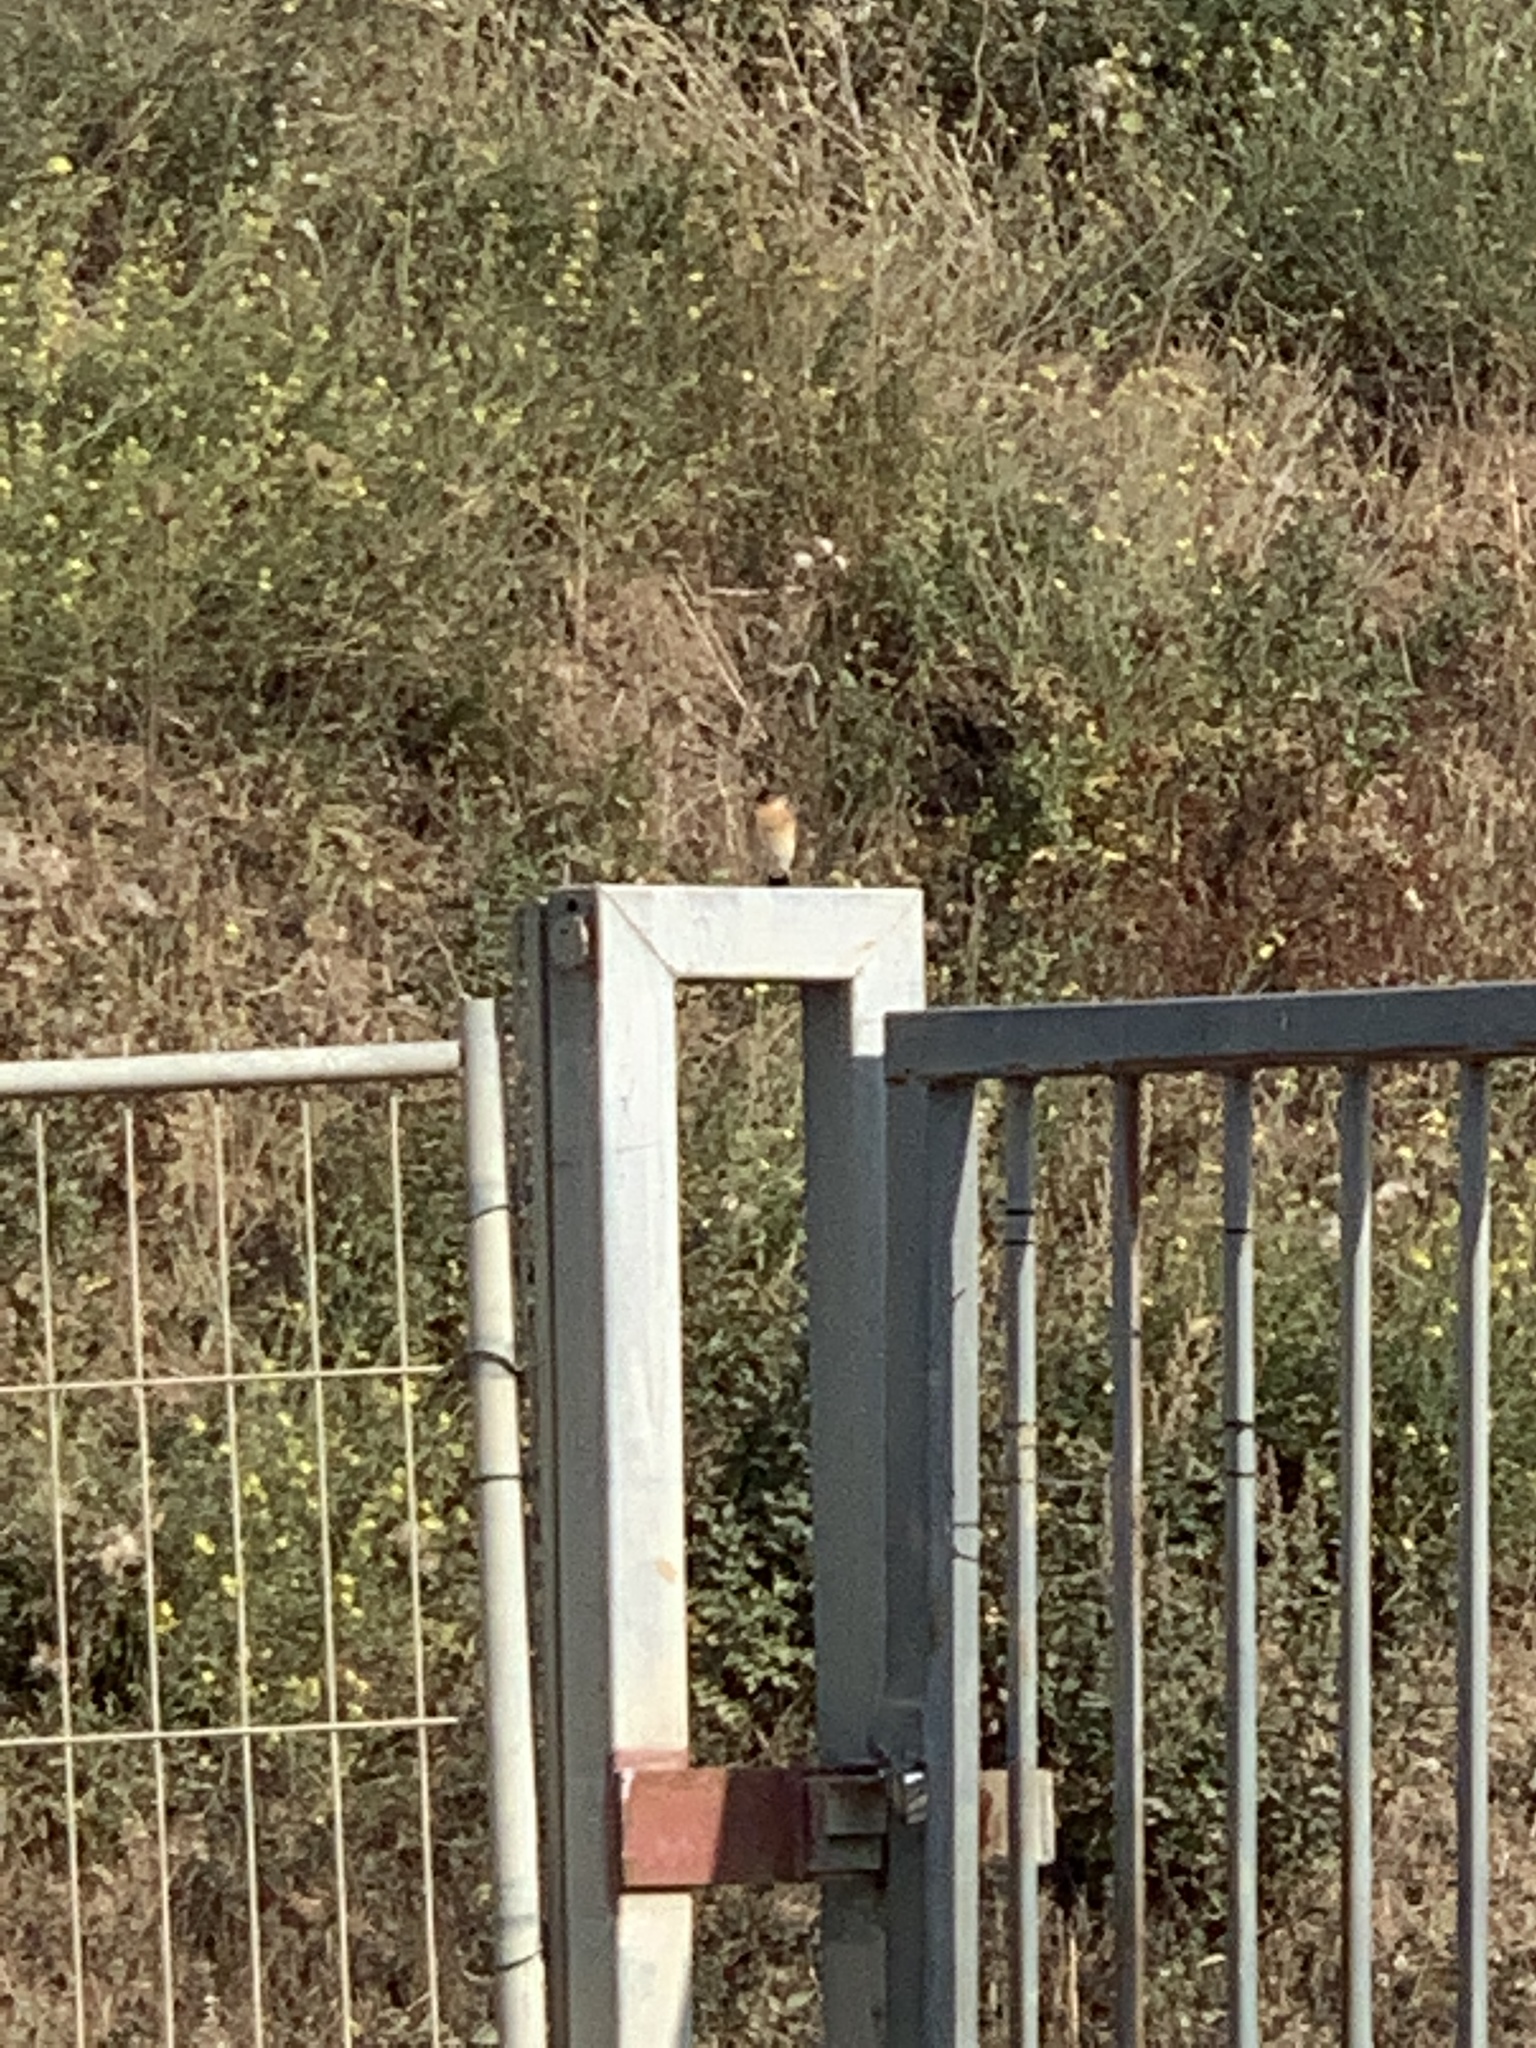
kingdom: Animalia
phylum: Chordata
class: Aves
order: Passeriformes
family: Muscicapidae
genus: Oenanthe
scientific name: Oenanthe oenanthe
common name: Northern wheatear
